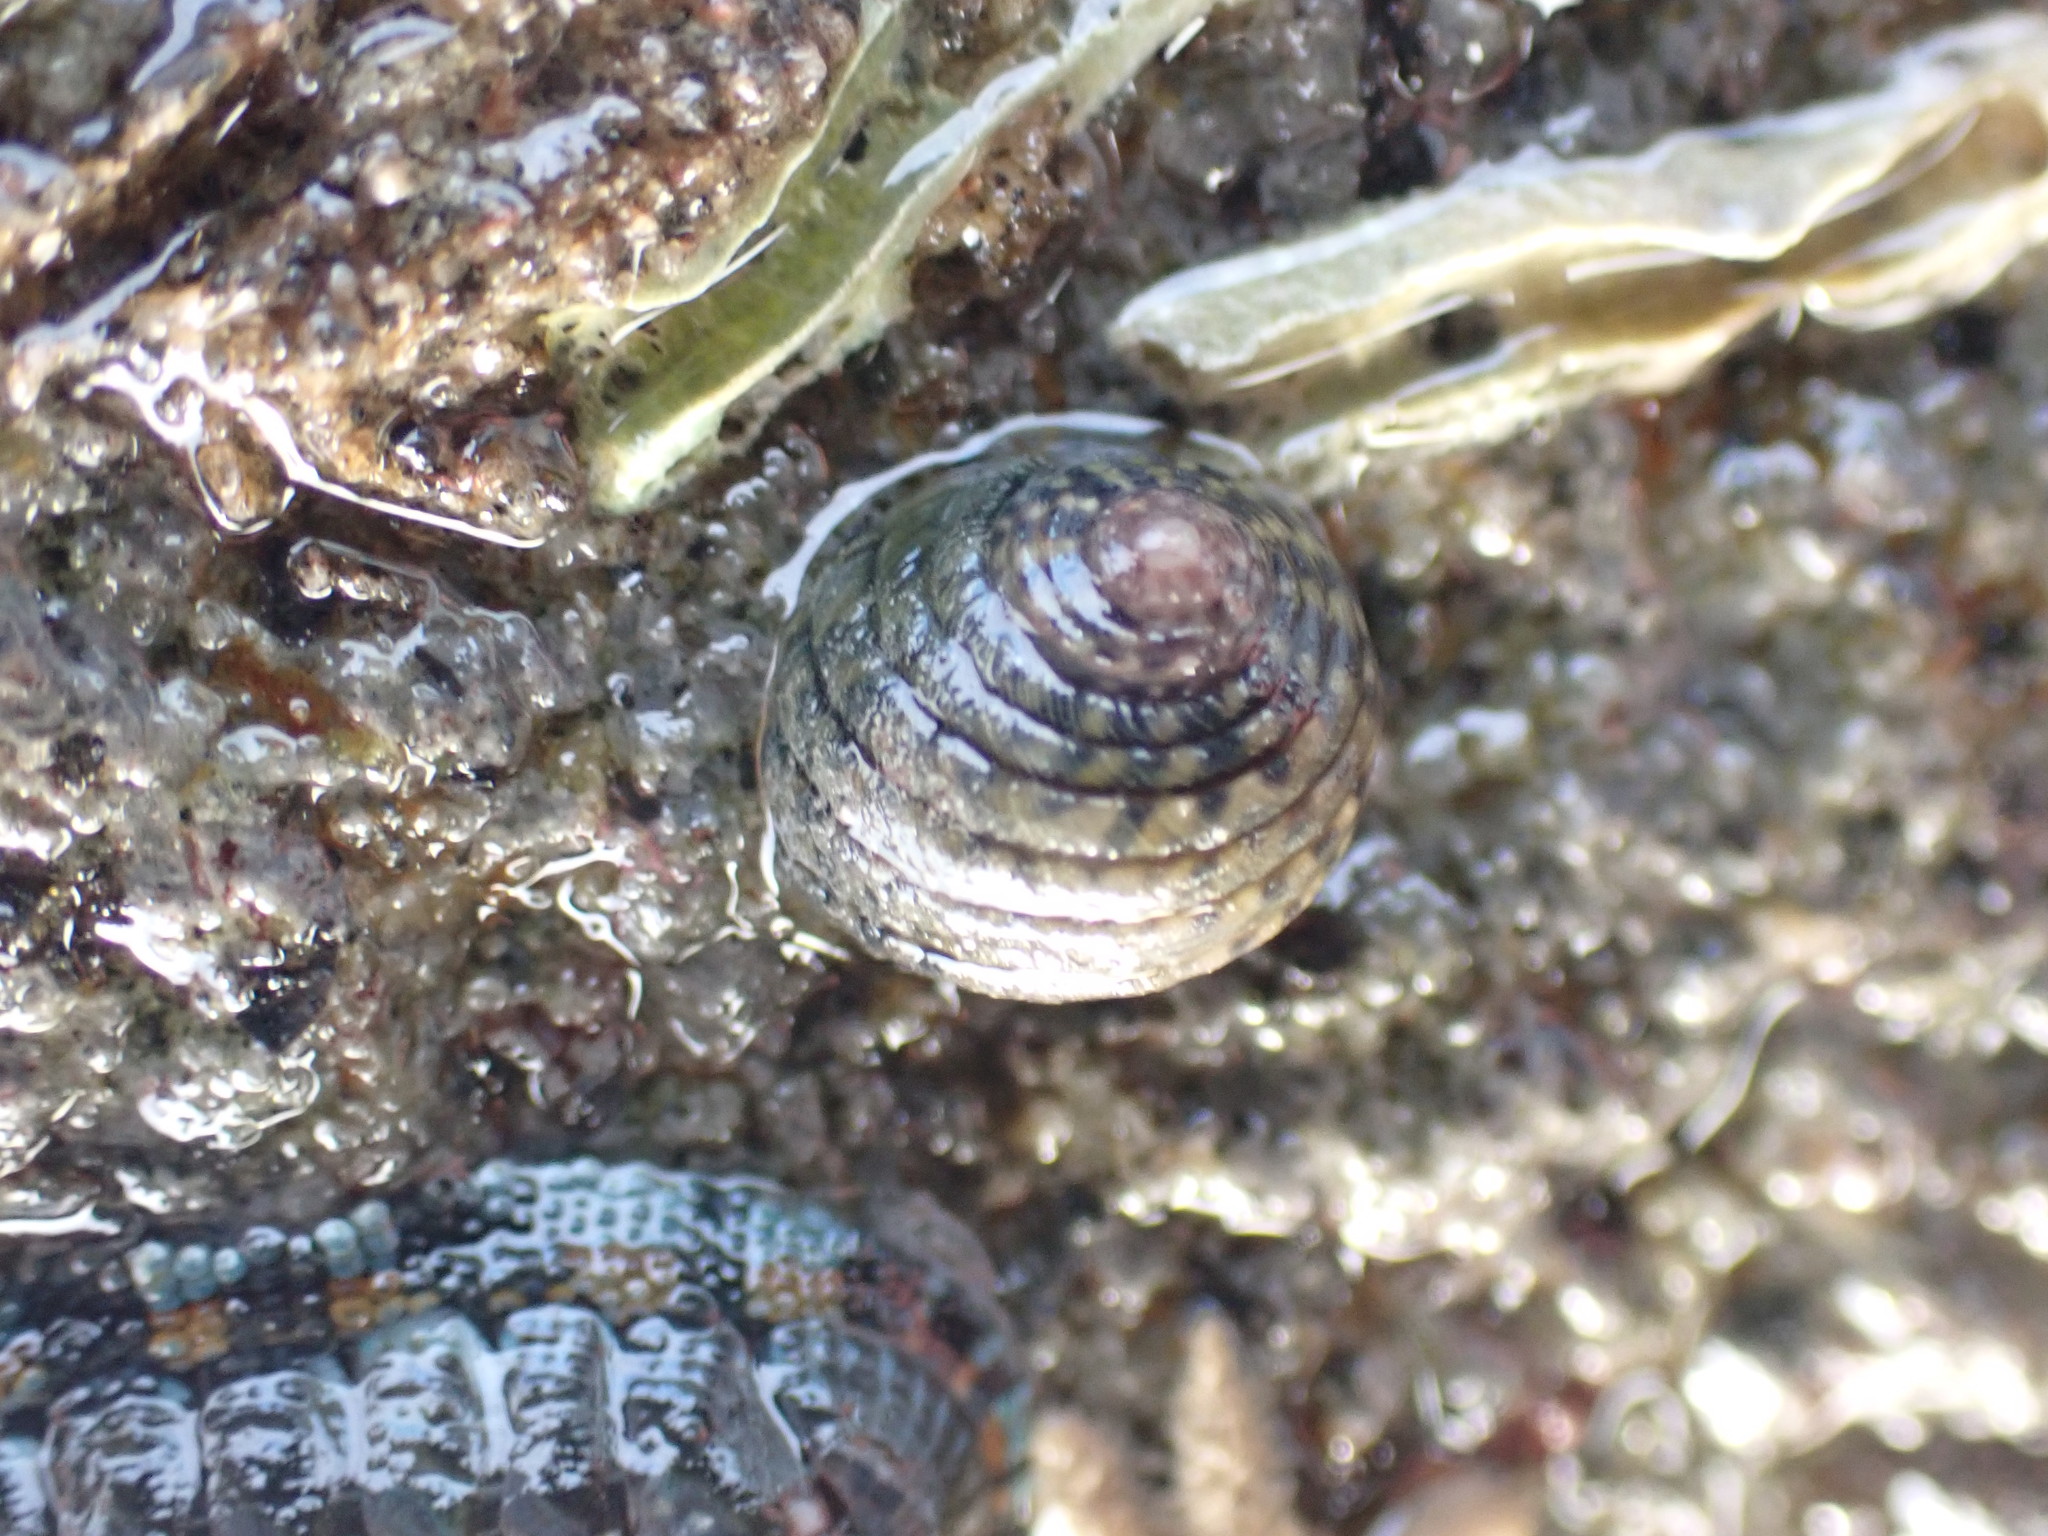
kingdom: Animalia
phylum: Mollusca
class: Gastropoda
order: Trochida
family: Trochidae
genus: Diloma
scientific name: Diloma aethiops
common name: Scorched monodont
